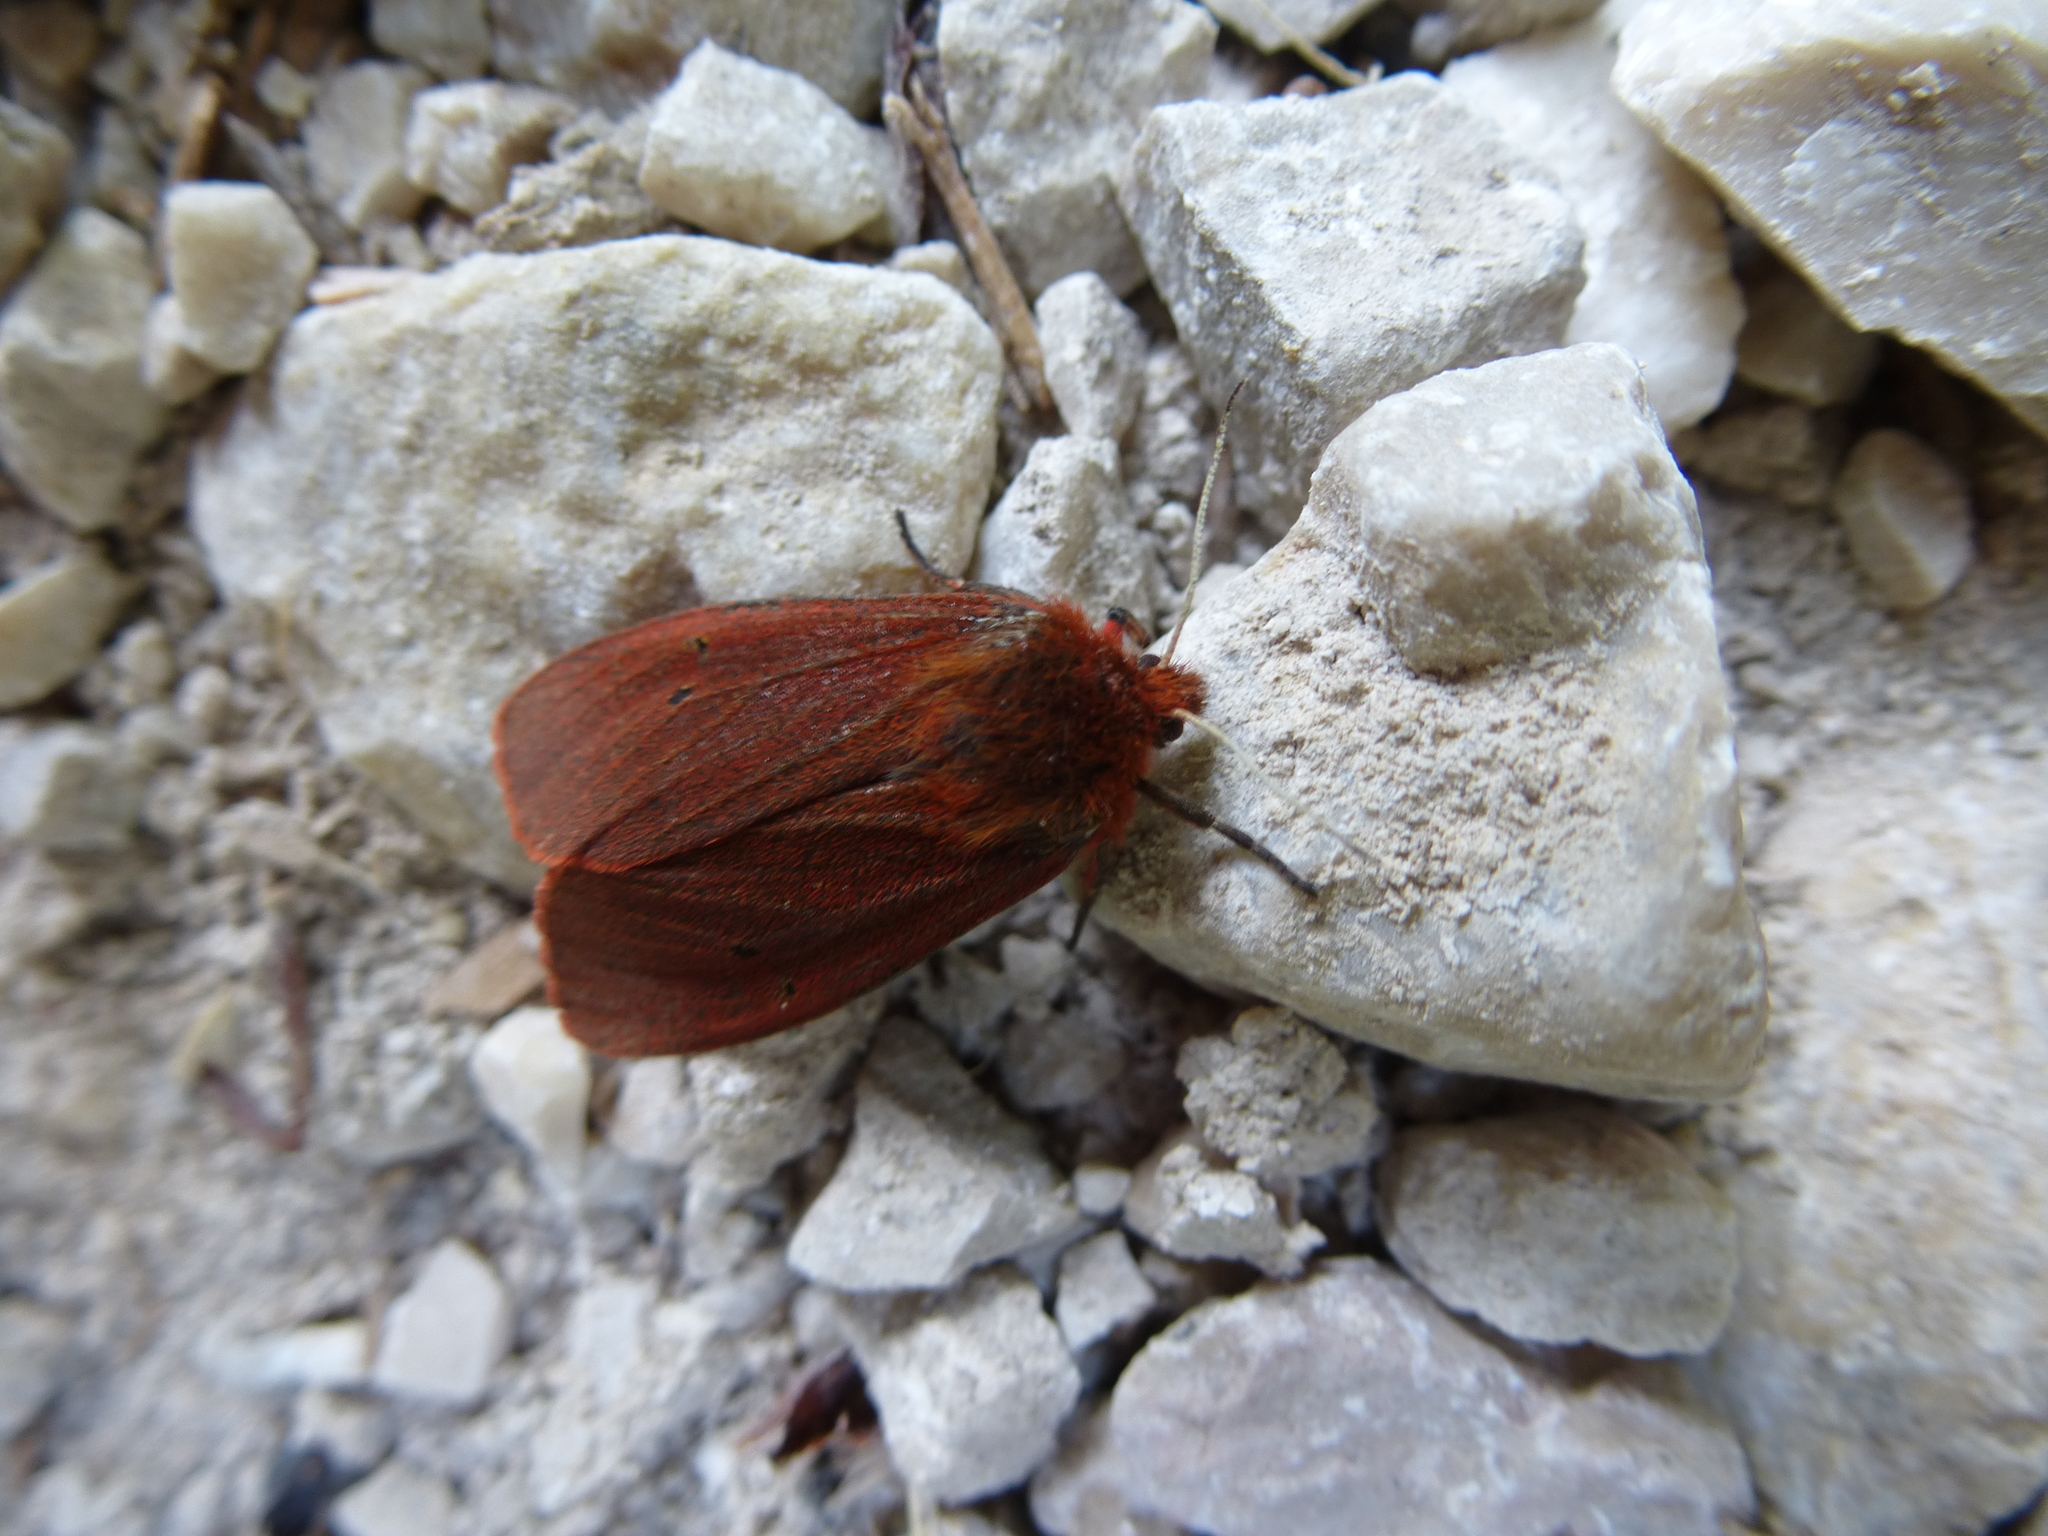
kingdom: Animalia
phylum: Arthropoda
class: Insecta
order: Lepidoptera
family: Erebidae
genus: Phragmatobia
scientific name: Phragmatobia fuliginosa
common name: Ruby tiger
